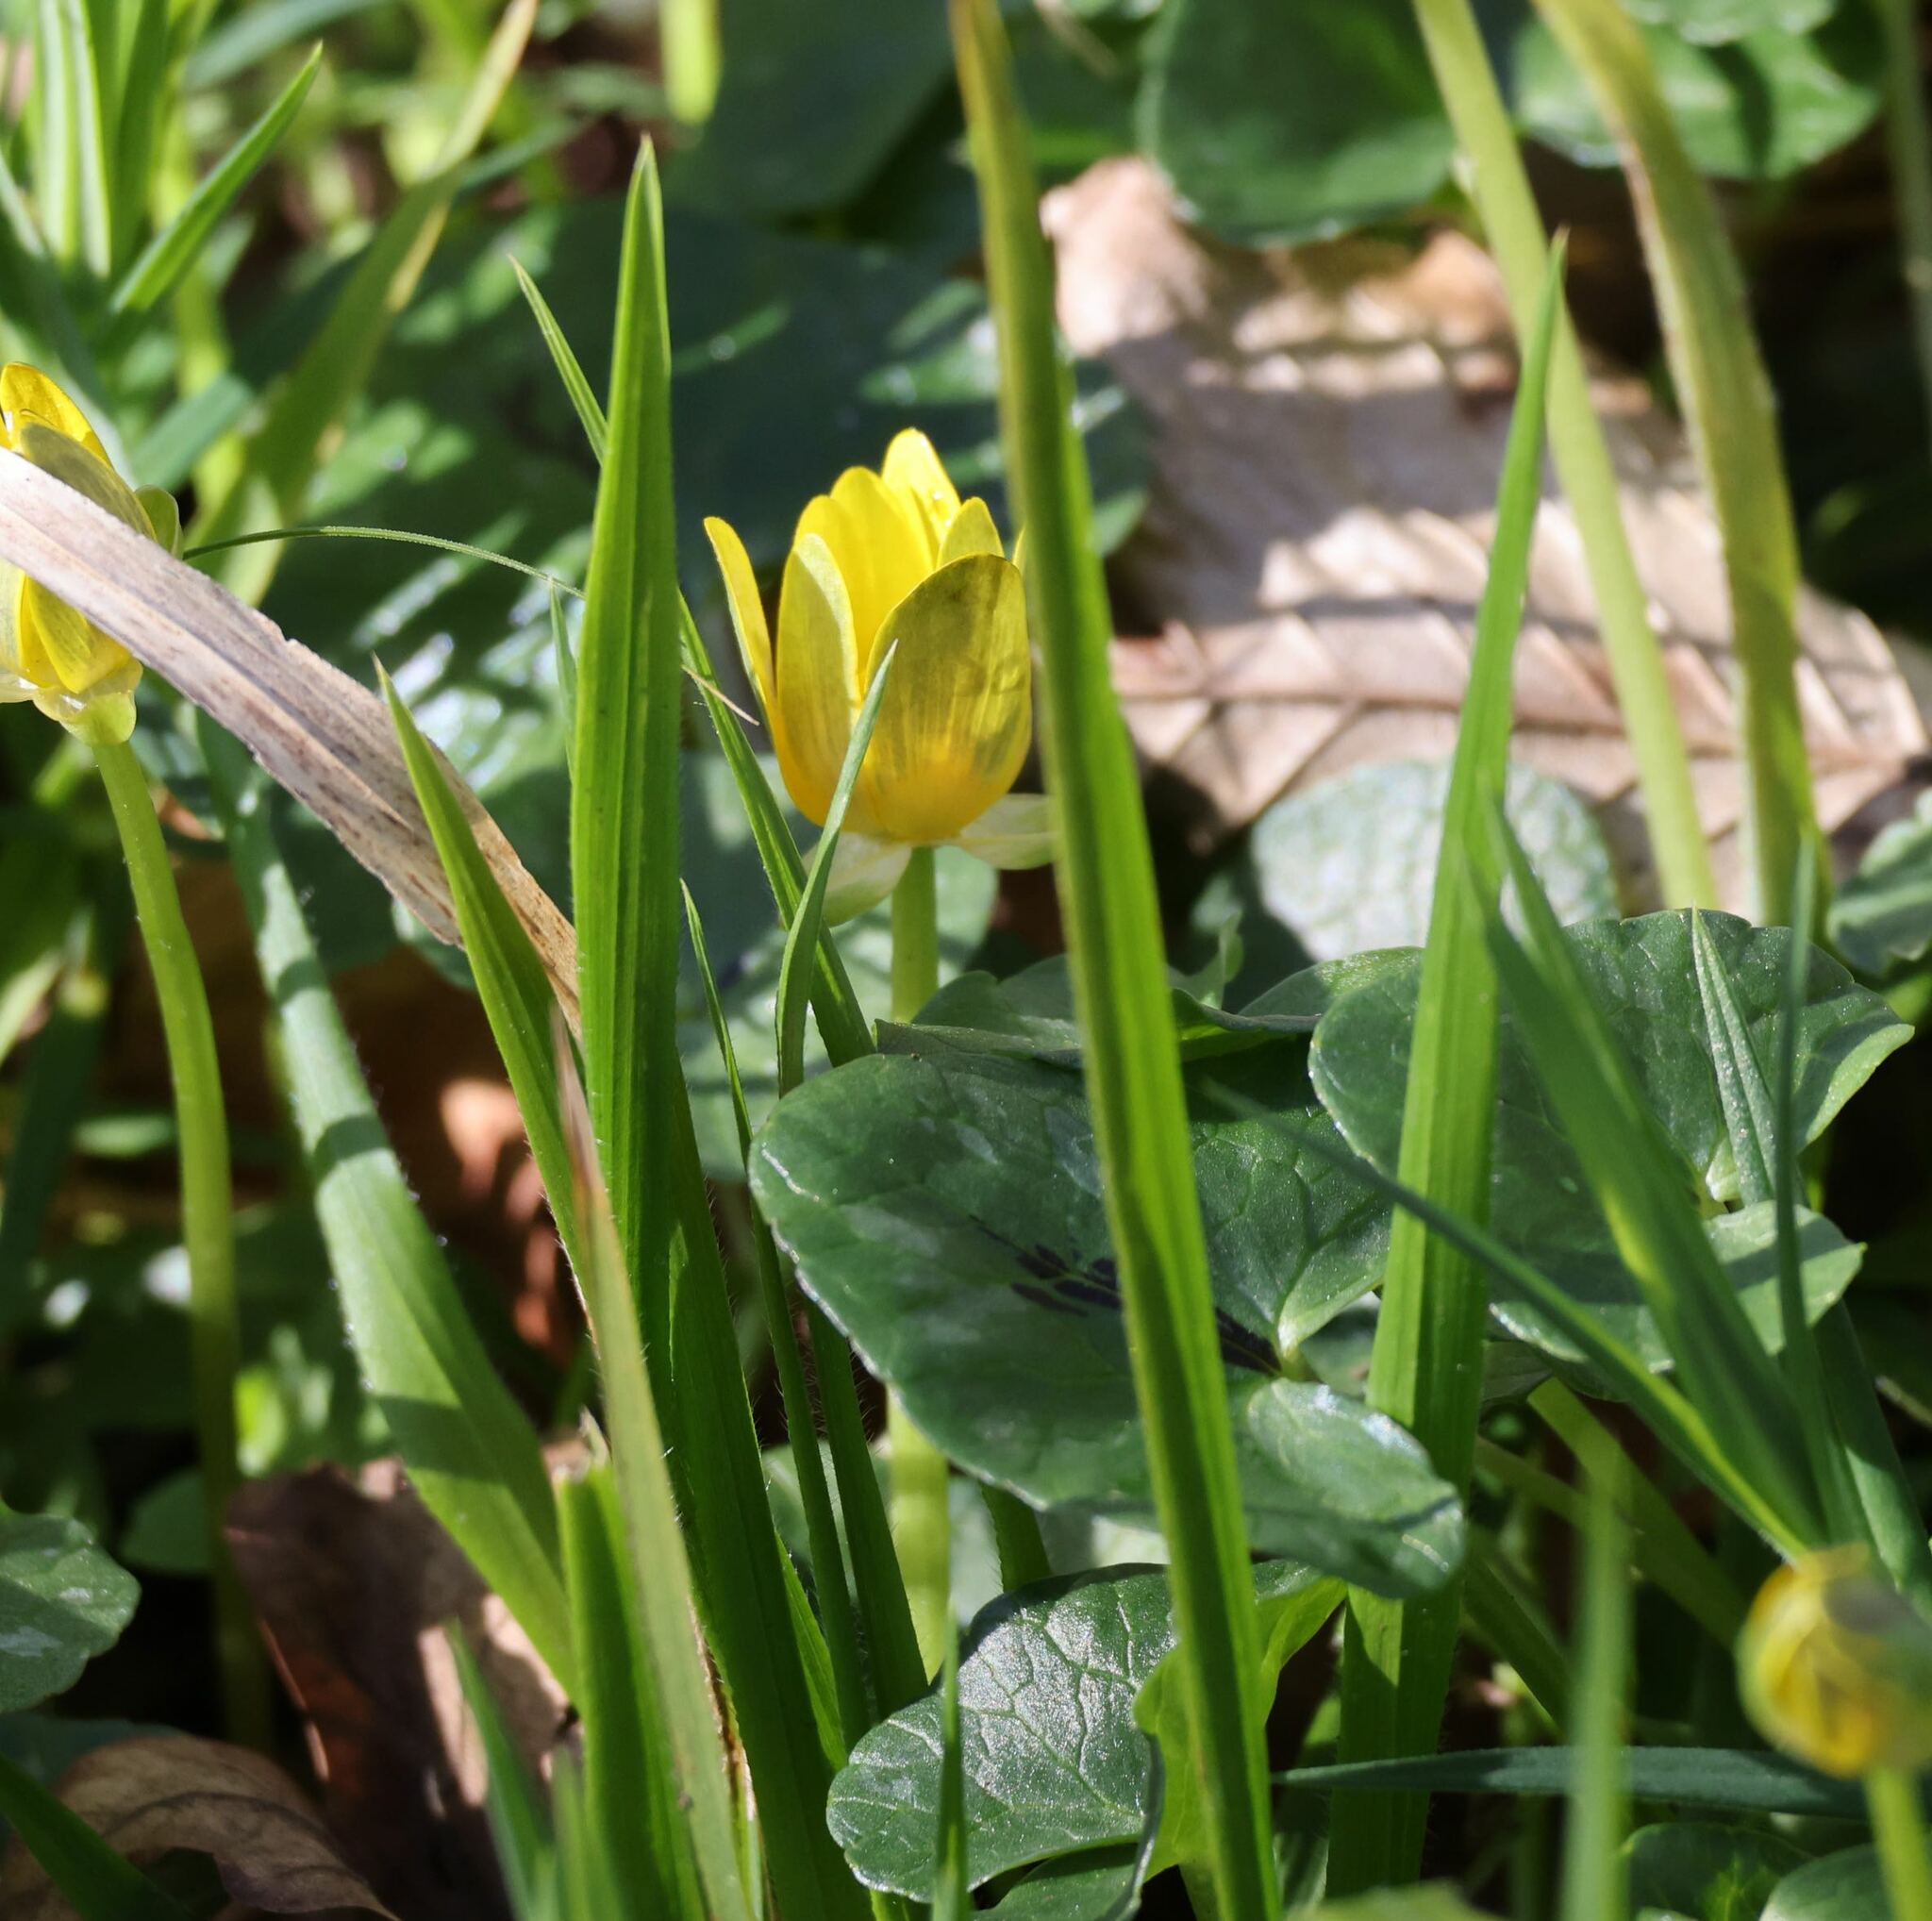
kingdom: Plantae
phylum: Tracheophyta
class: Magnoliopsida
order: Ranunculales
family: Ranunculaceae
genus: Ficaria
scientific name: Ficaria verna
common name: Lesser celandine
